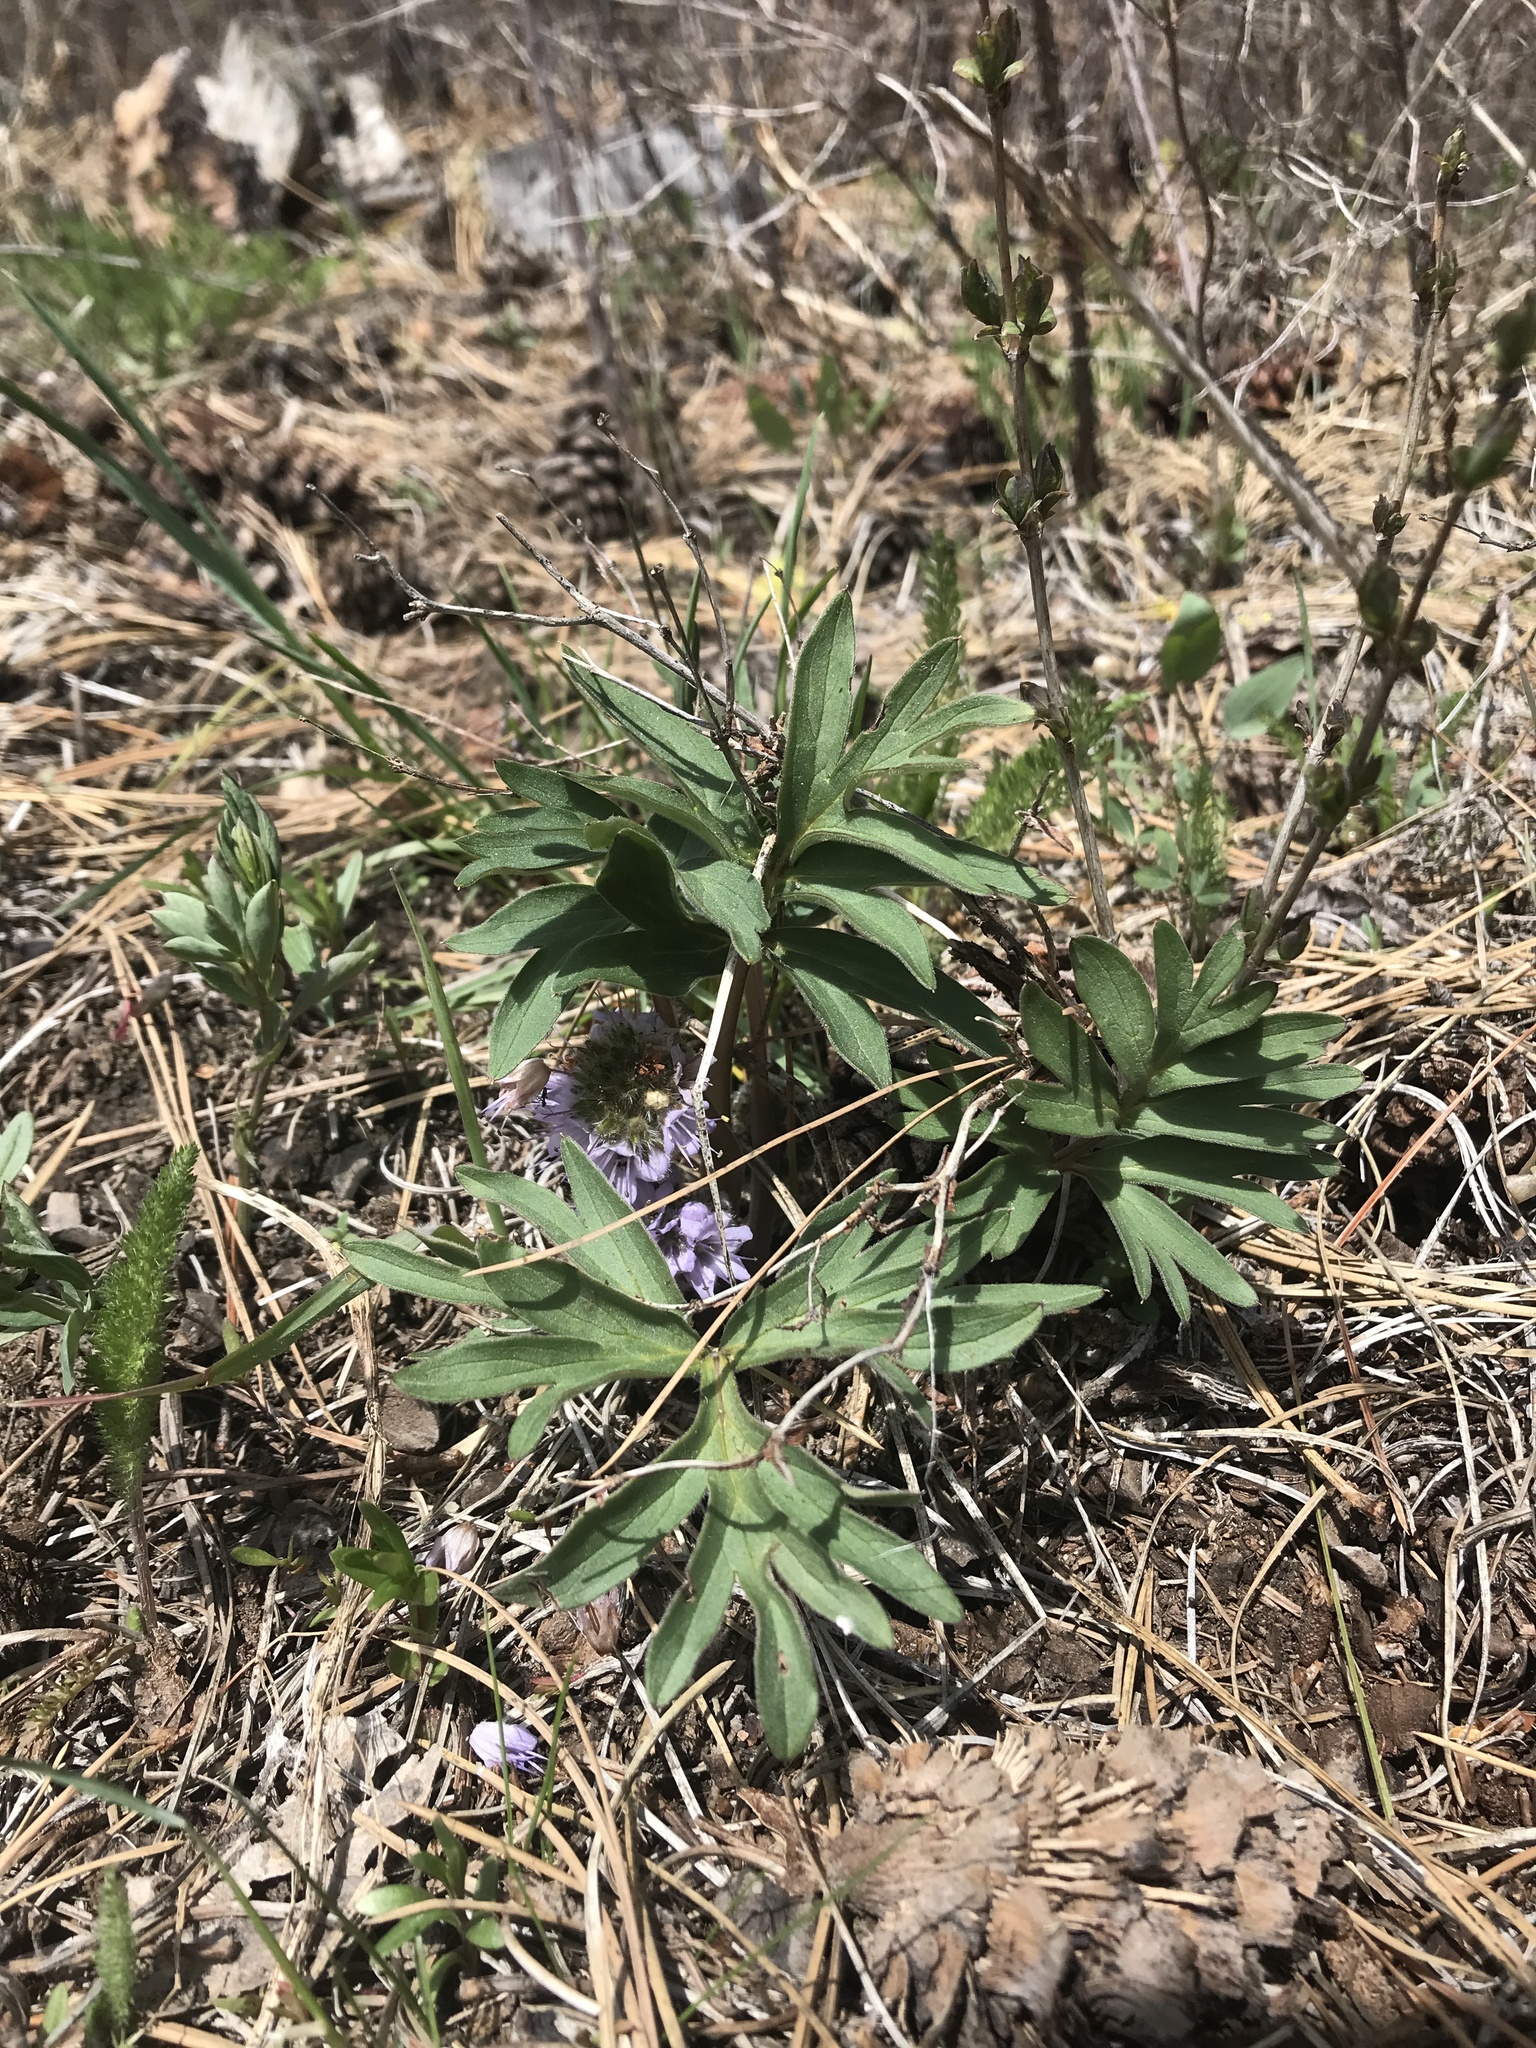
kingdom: Plantae
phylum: Tracheophyta
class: Magnoliopsida
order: Boraginales
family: Hydrophyllaceae
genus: Hydrophyllum
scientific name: Hydrophyllum capitatum
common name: Woollen-breeches
